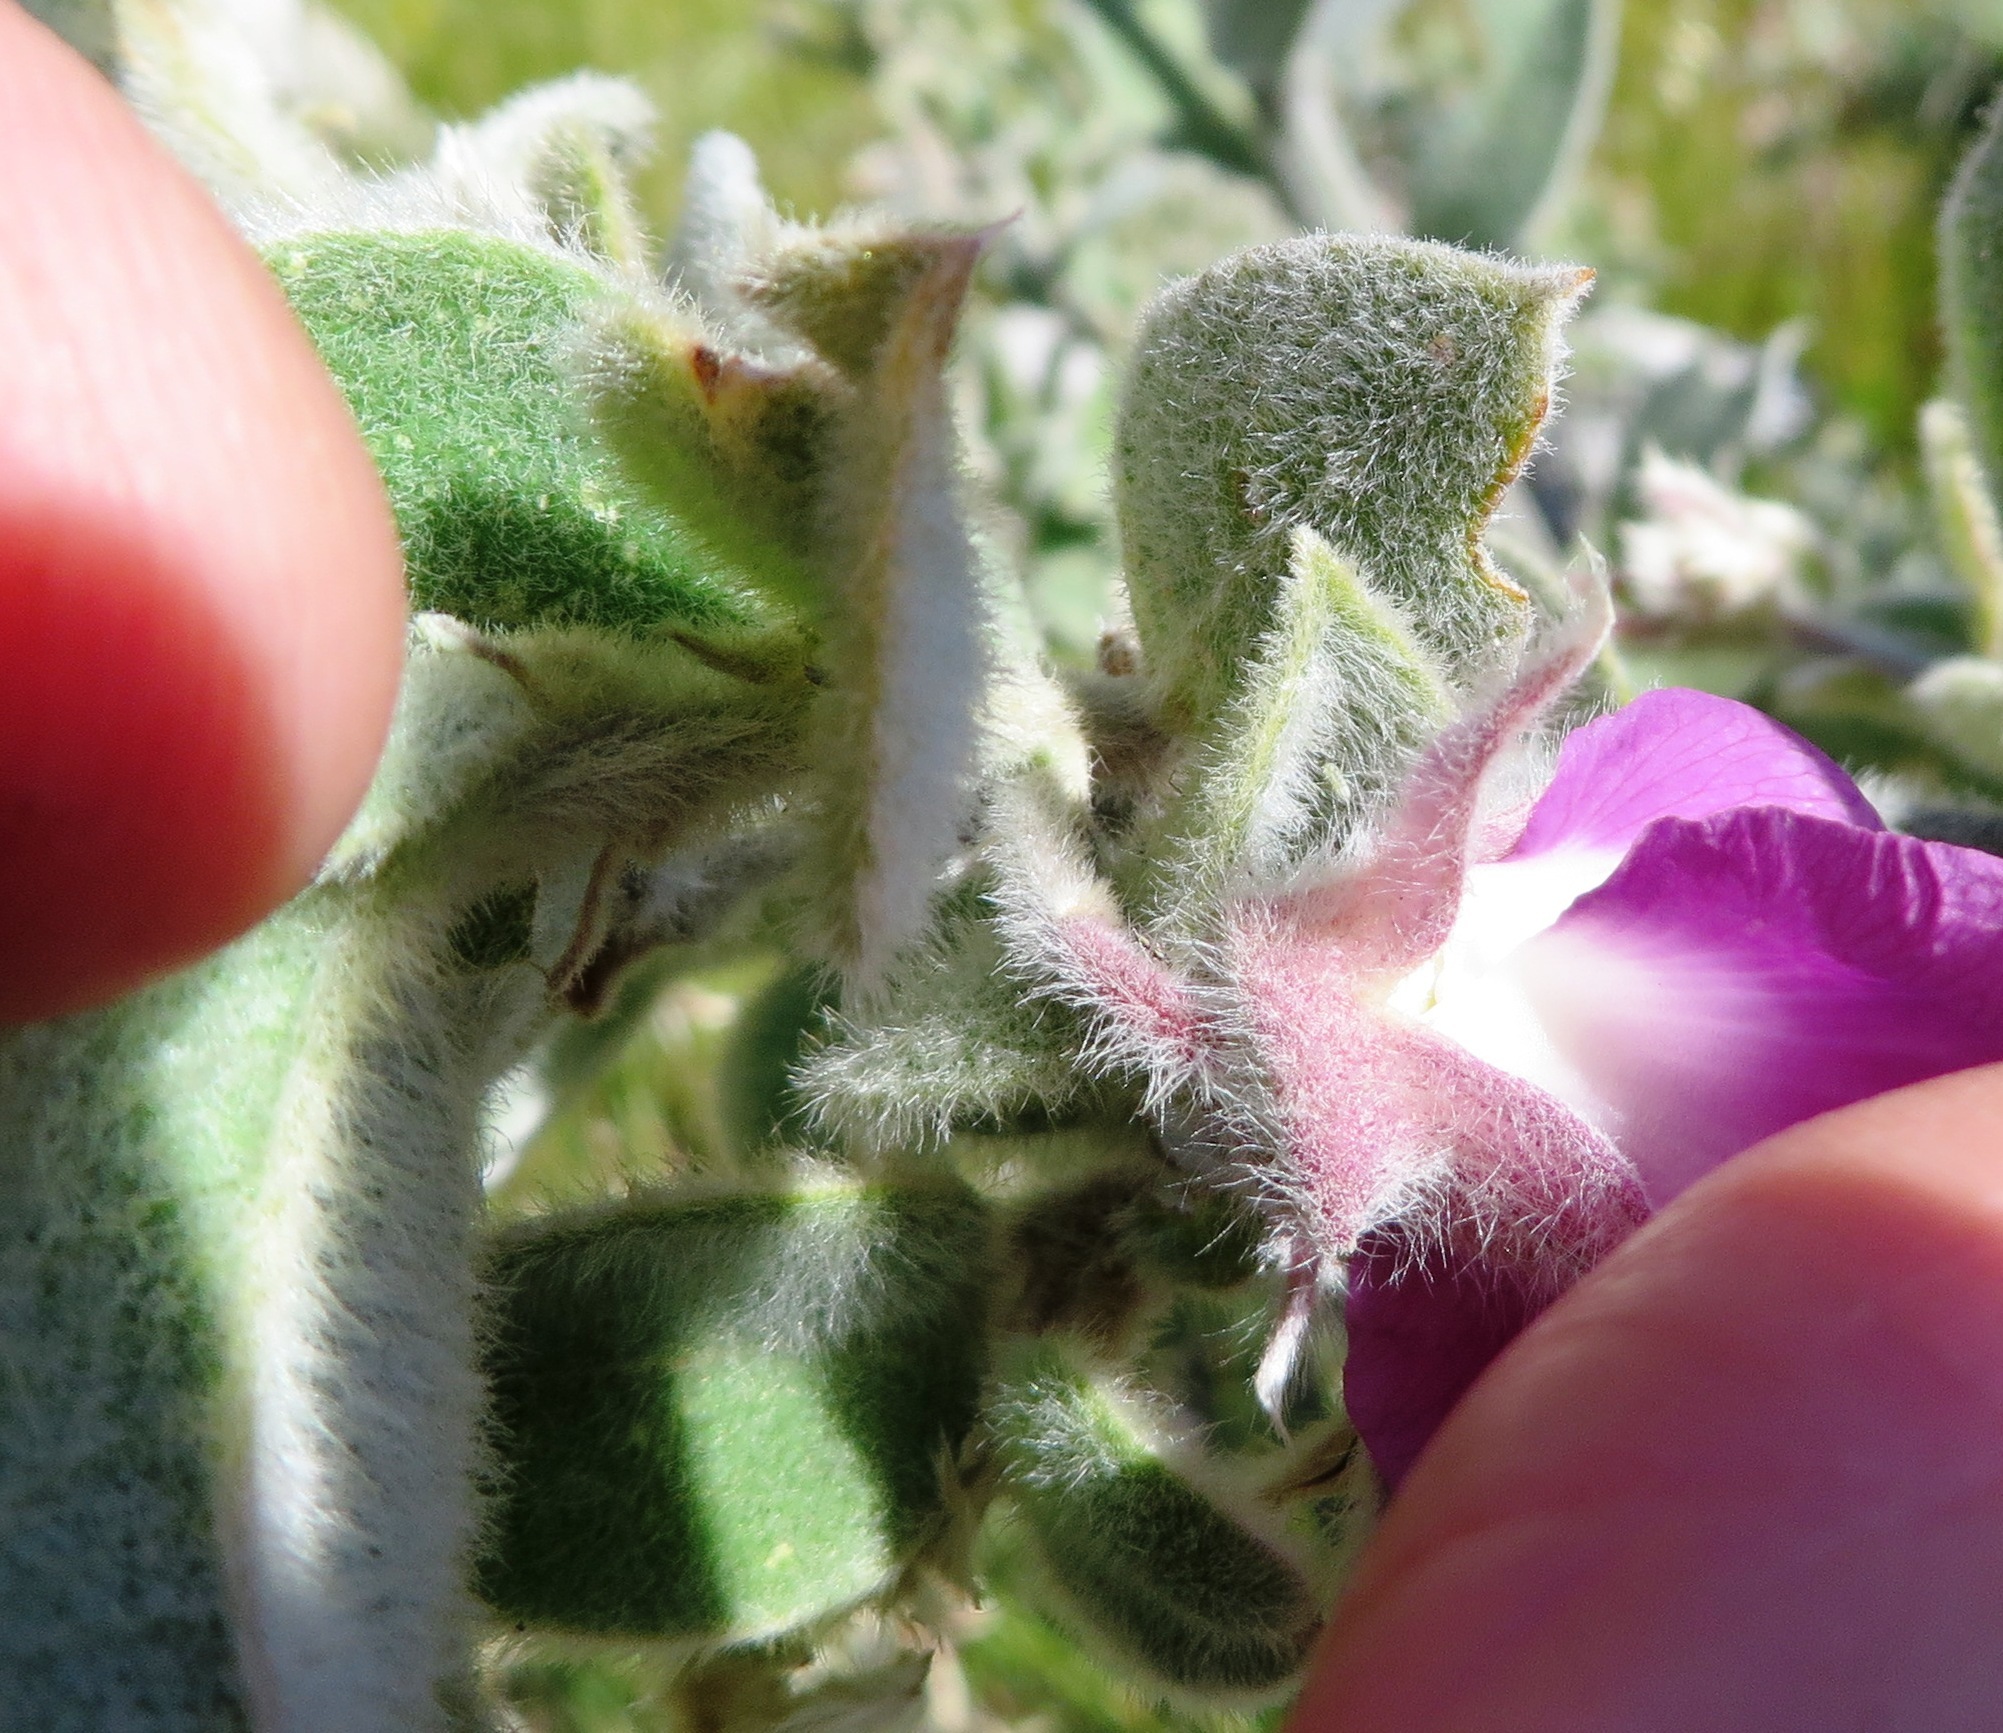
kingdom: Plantae
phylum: Tracheophyta
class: Magnoliopsida
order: Fabales
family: Fabaceae
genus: Podalyria
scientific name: Podalyria hirsuta
